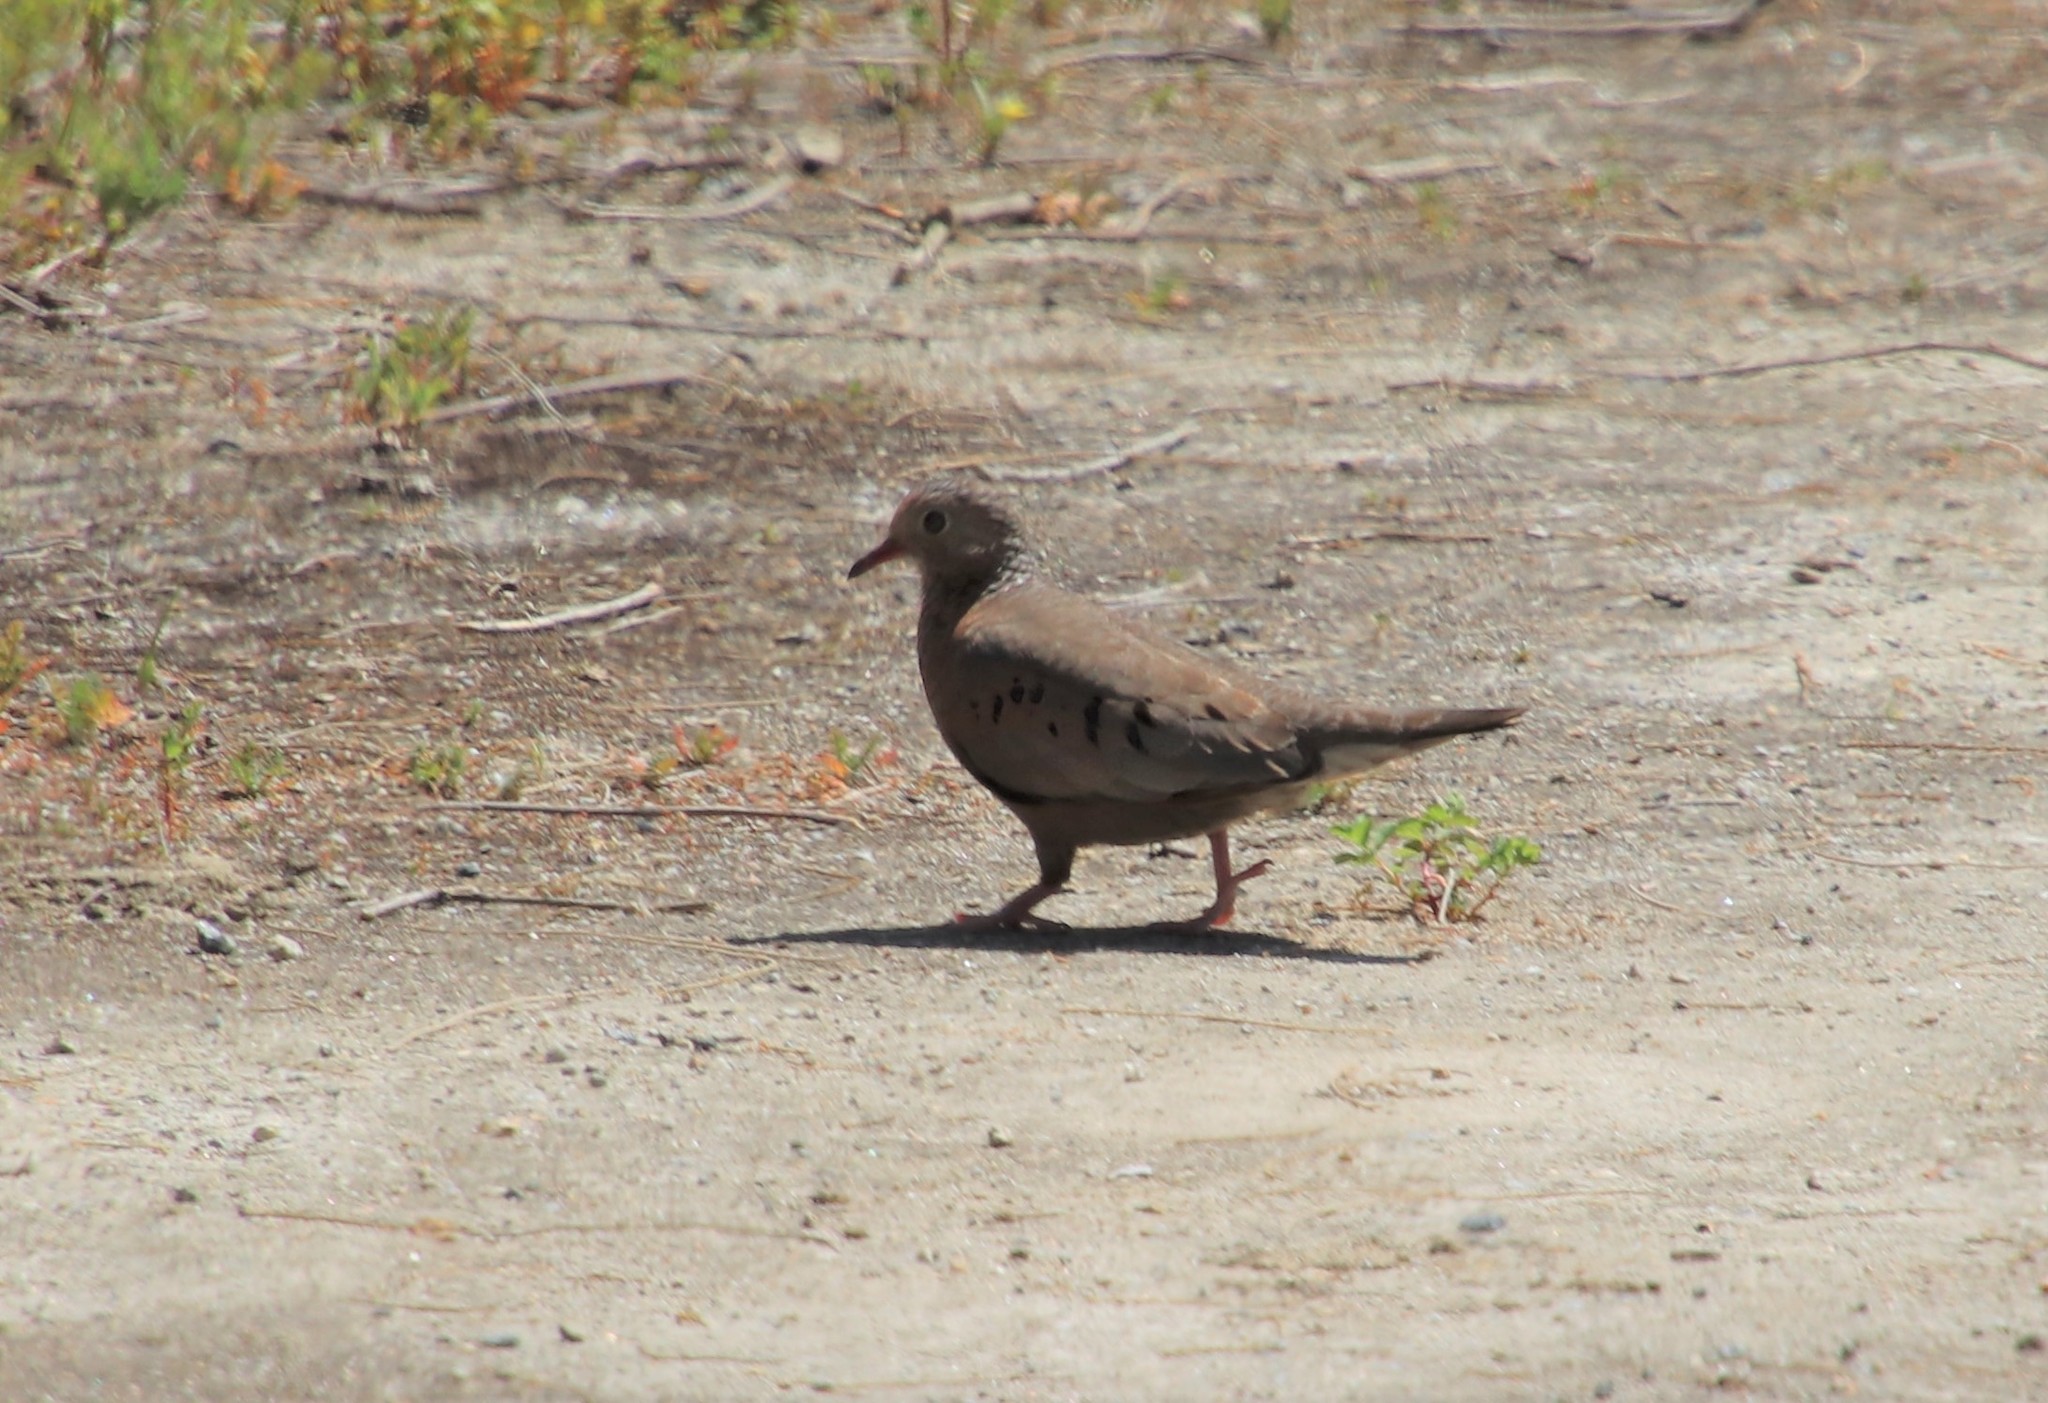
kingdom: Animalia
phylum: Chordata
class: Aves
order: Columbiformes
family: Columbidae
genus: Columbina
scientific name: Columbina passerina
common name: Common ground-dove
